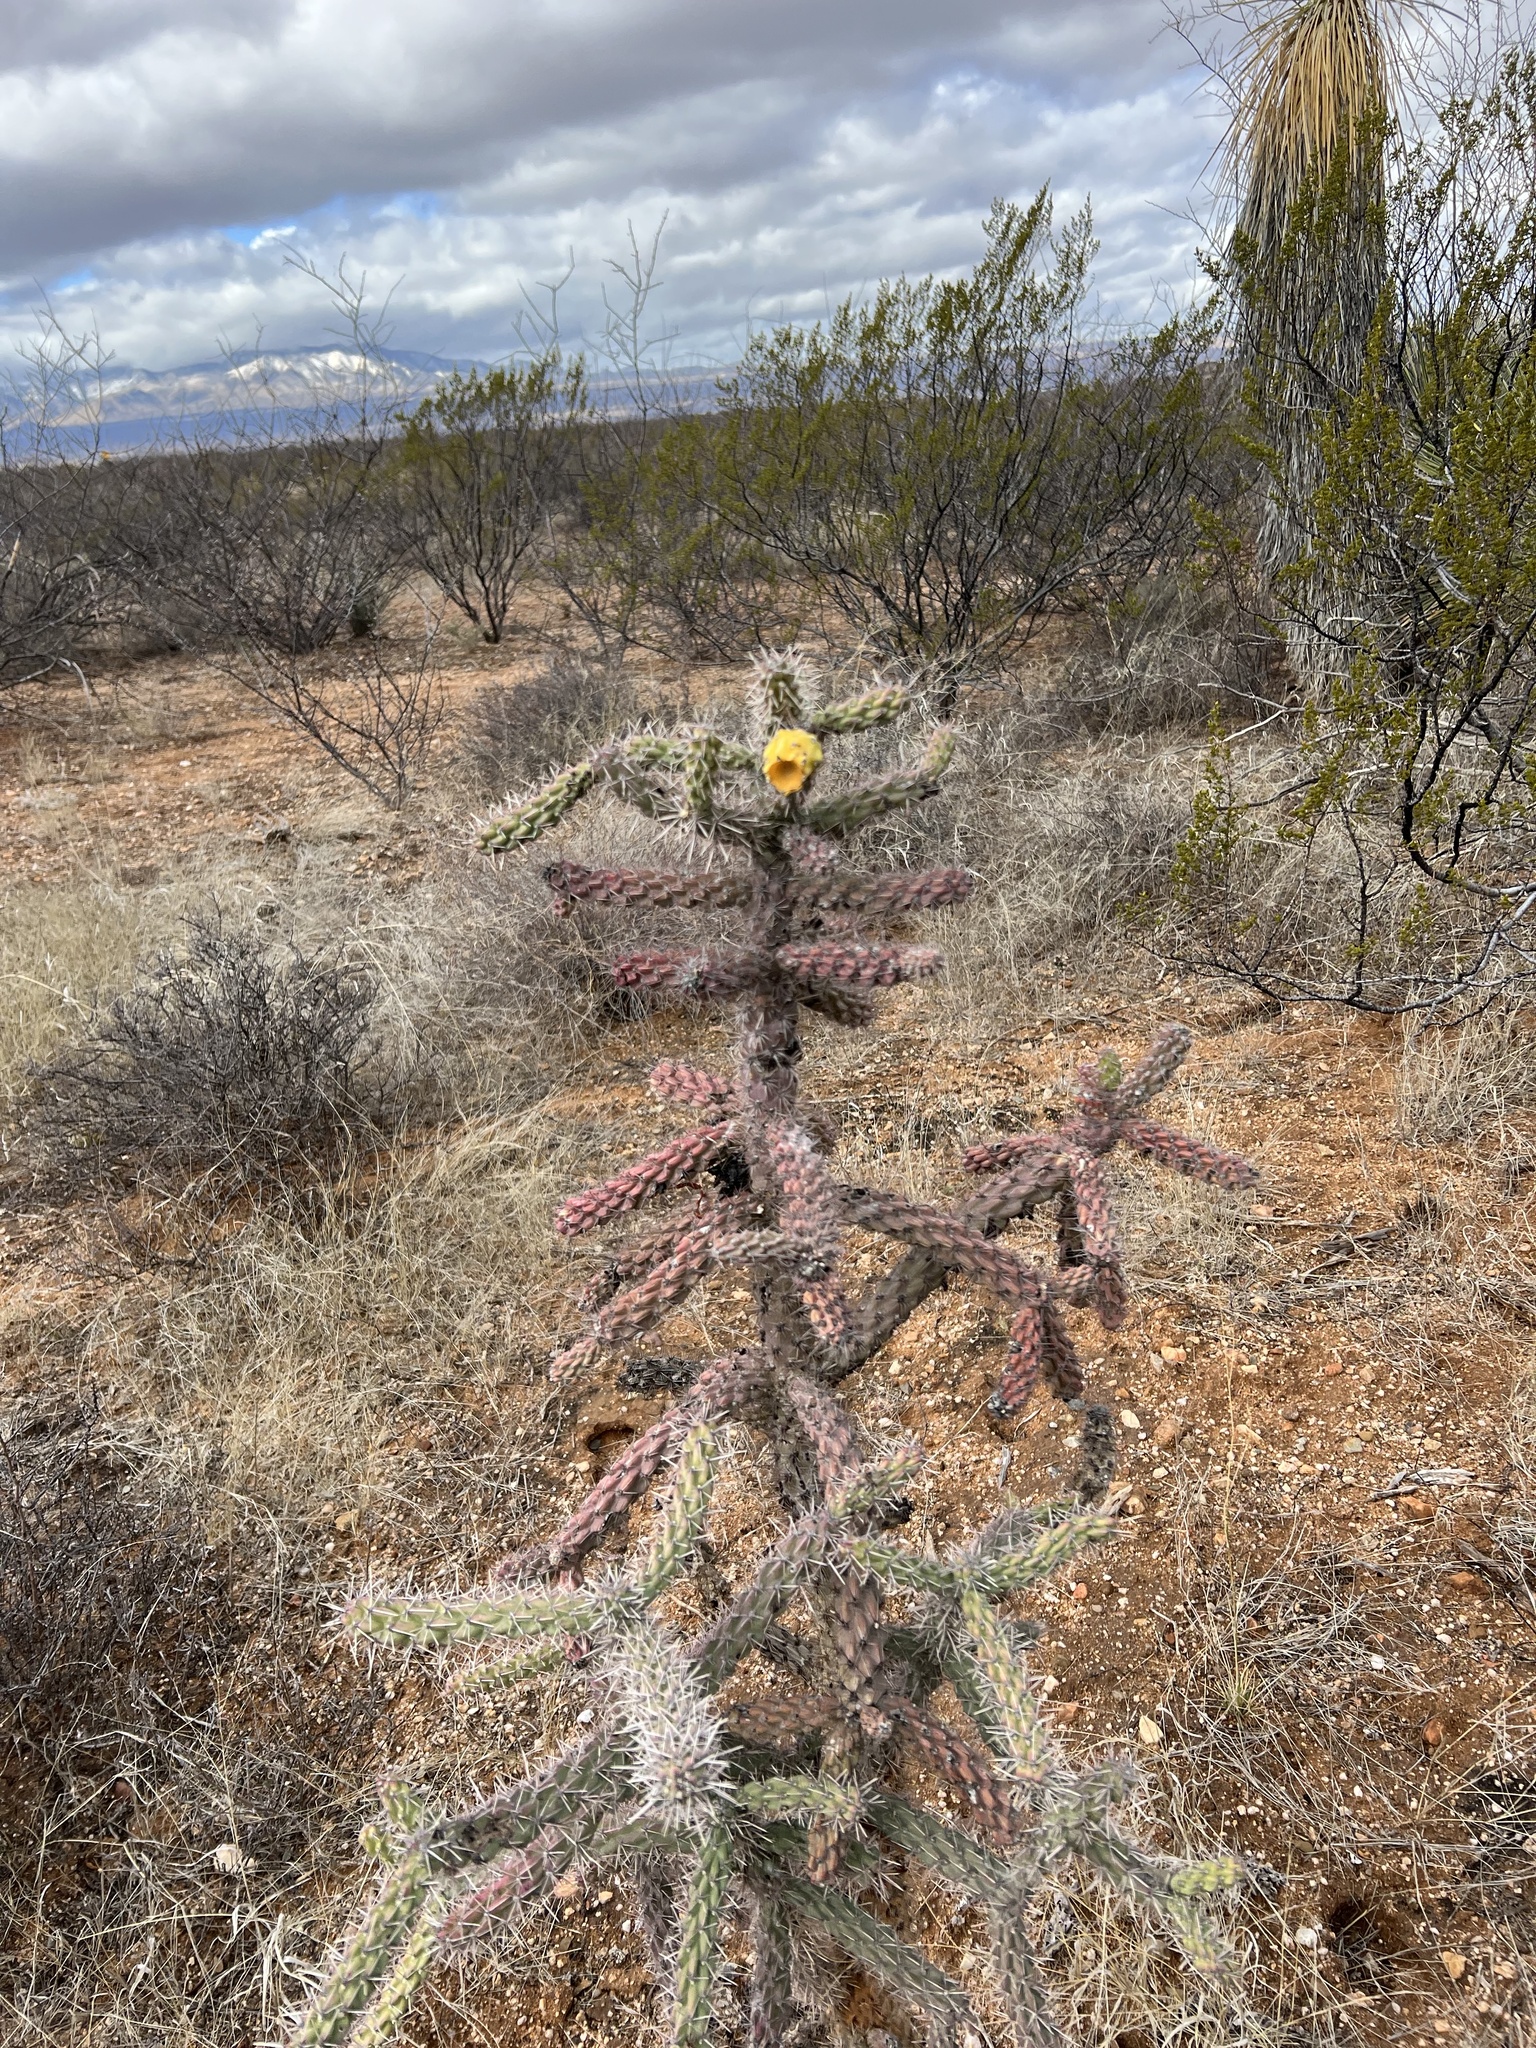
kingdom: Plantae
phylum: Tracheophyta
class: Magnoliopsida
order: Caryophyllales
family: Cactaceae
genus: Cylindropuntia
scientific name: Cylindropuntia imbricata
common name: Candelabrum cactus
